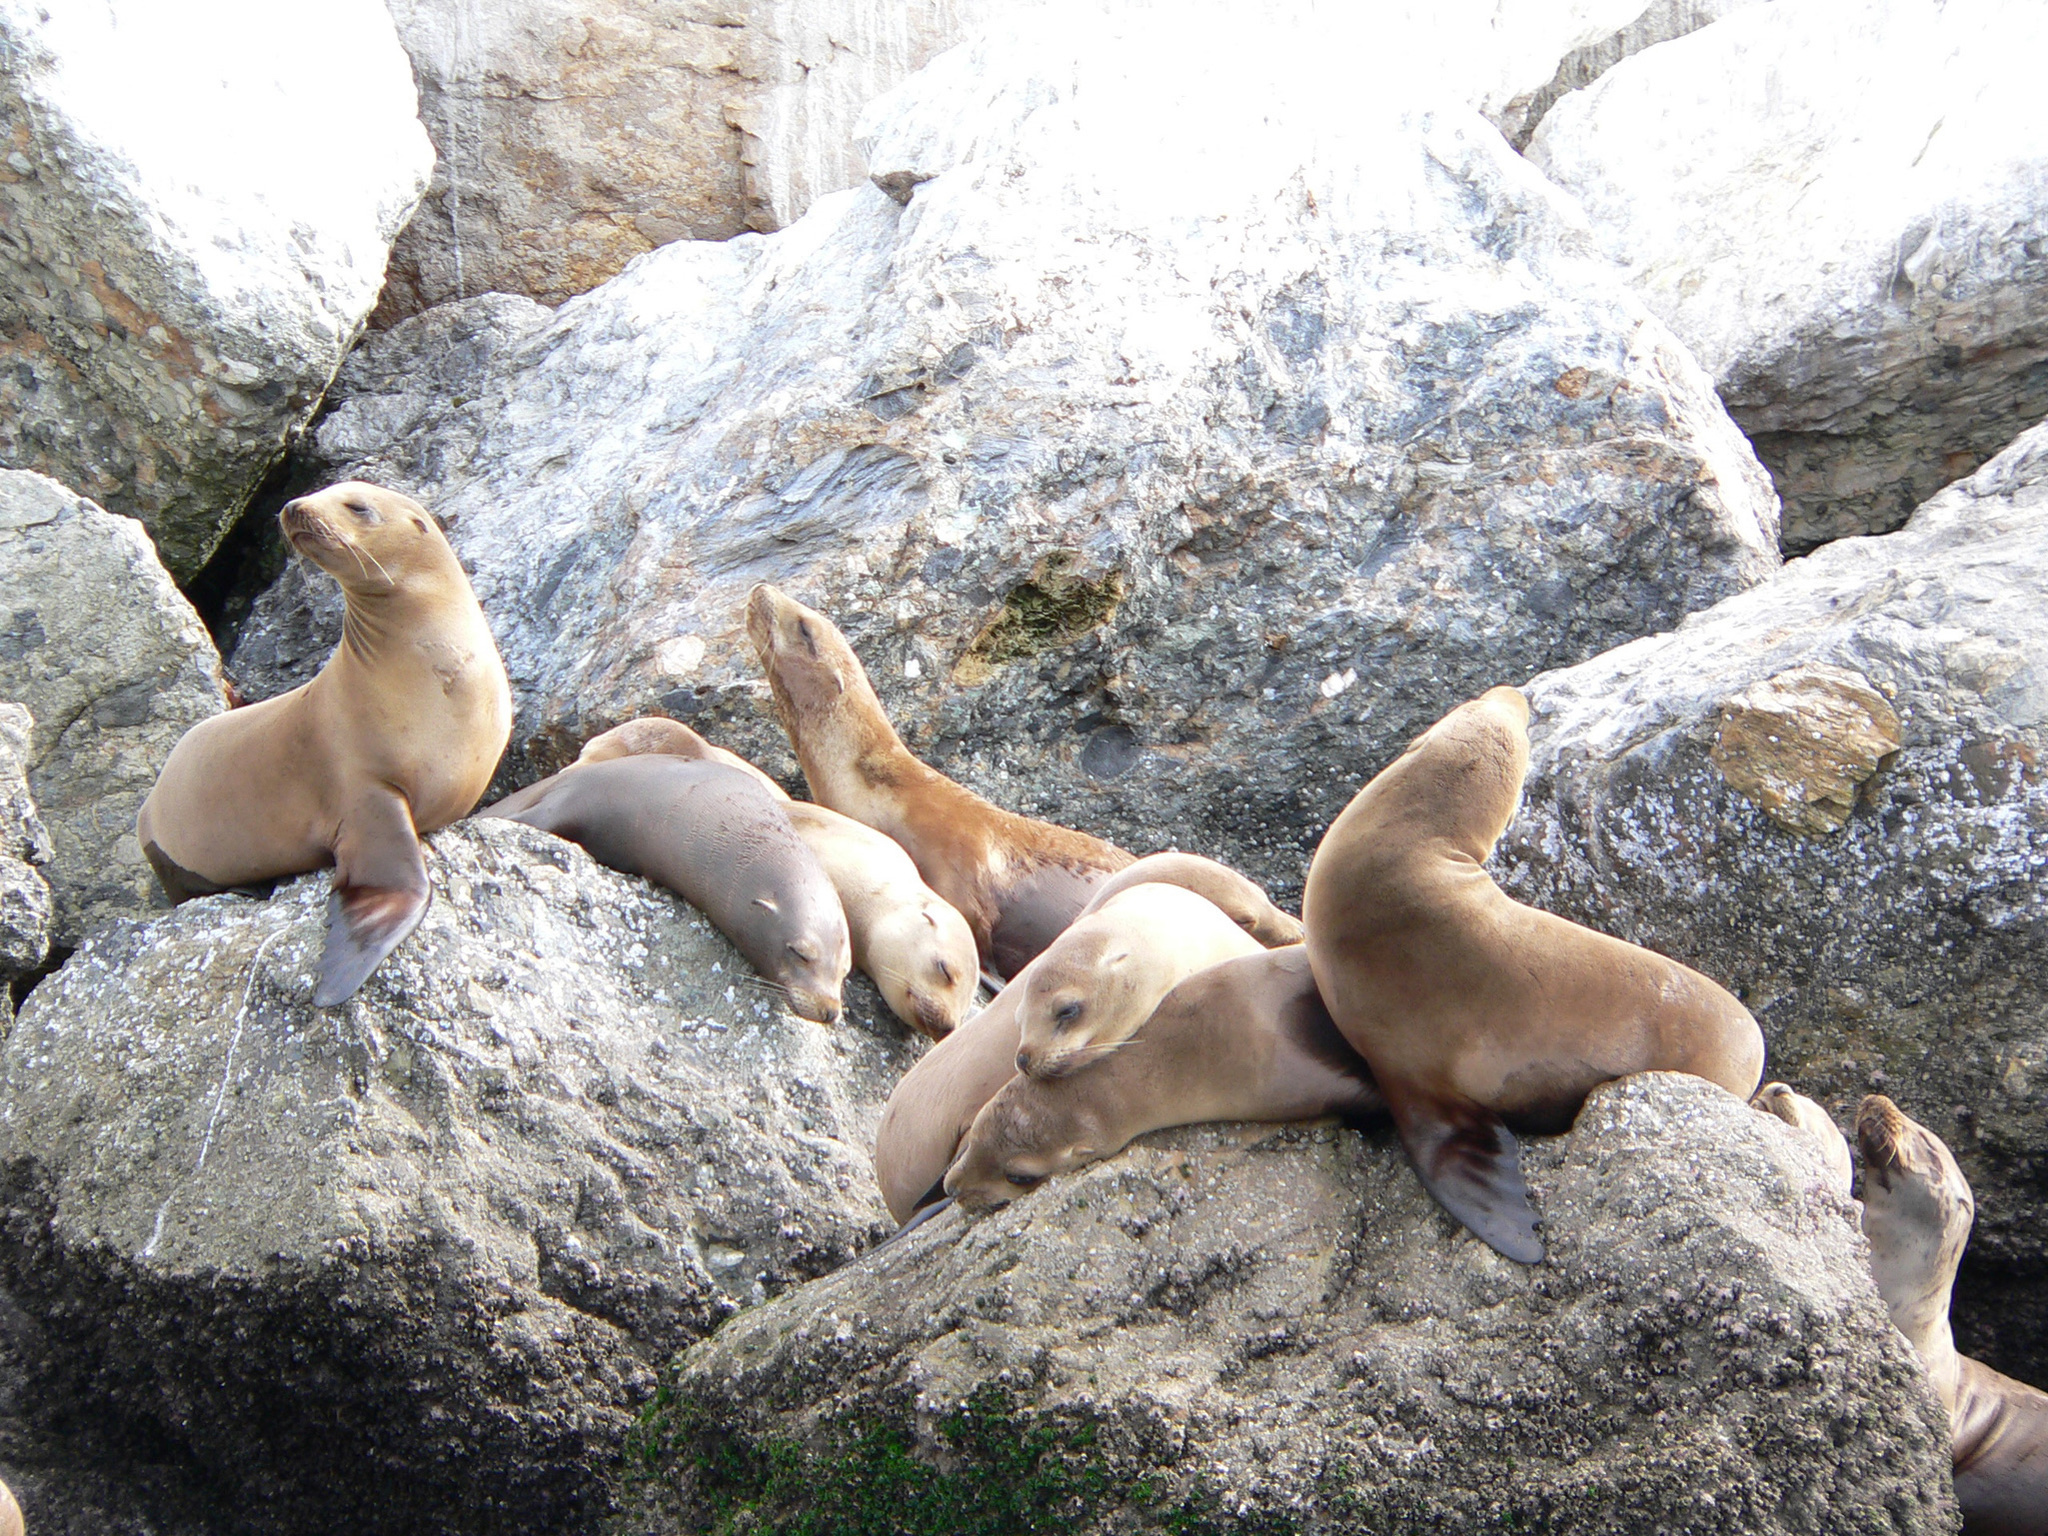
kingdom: Animalia
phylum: Chordata
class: Mammalia
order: Carnivora
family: Otariidae
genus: Zalophus
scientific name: Zalophus californianus
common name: California sea lion
